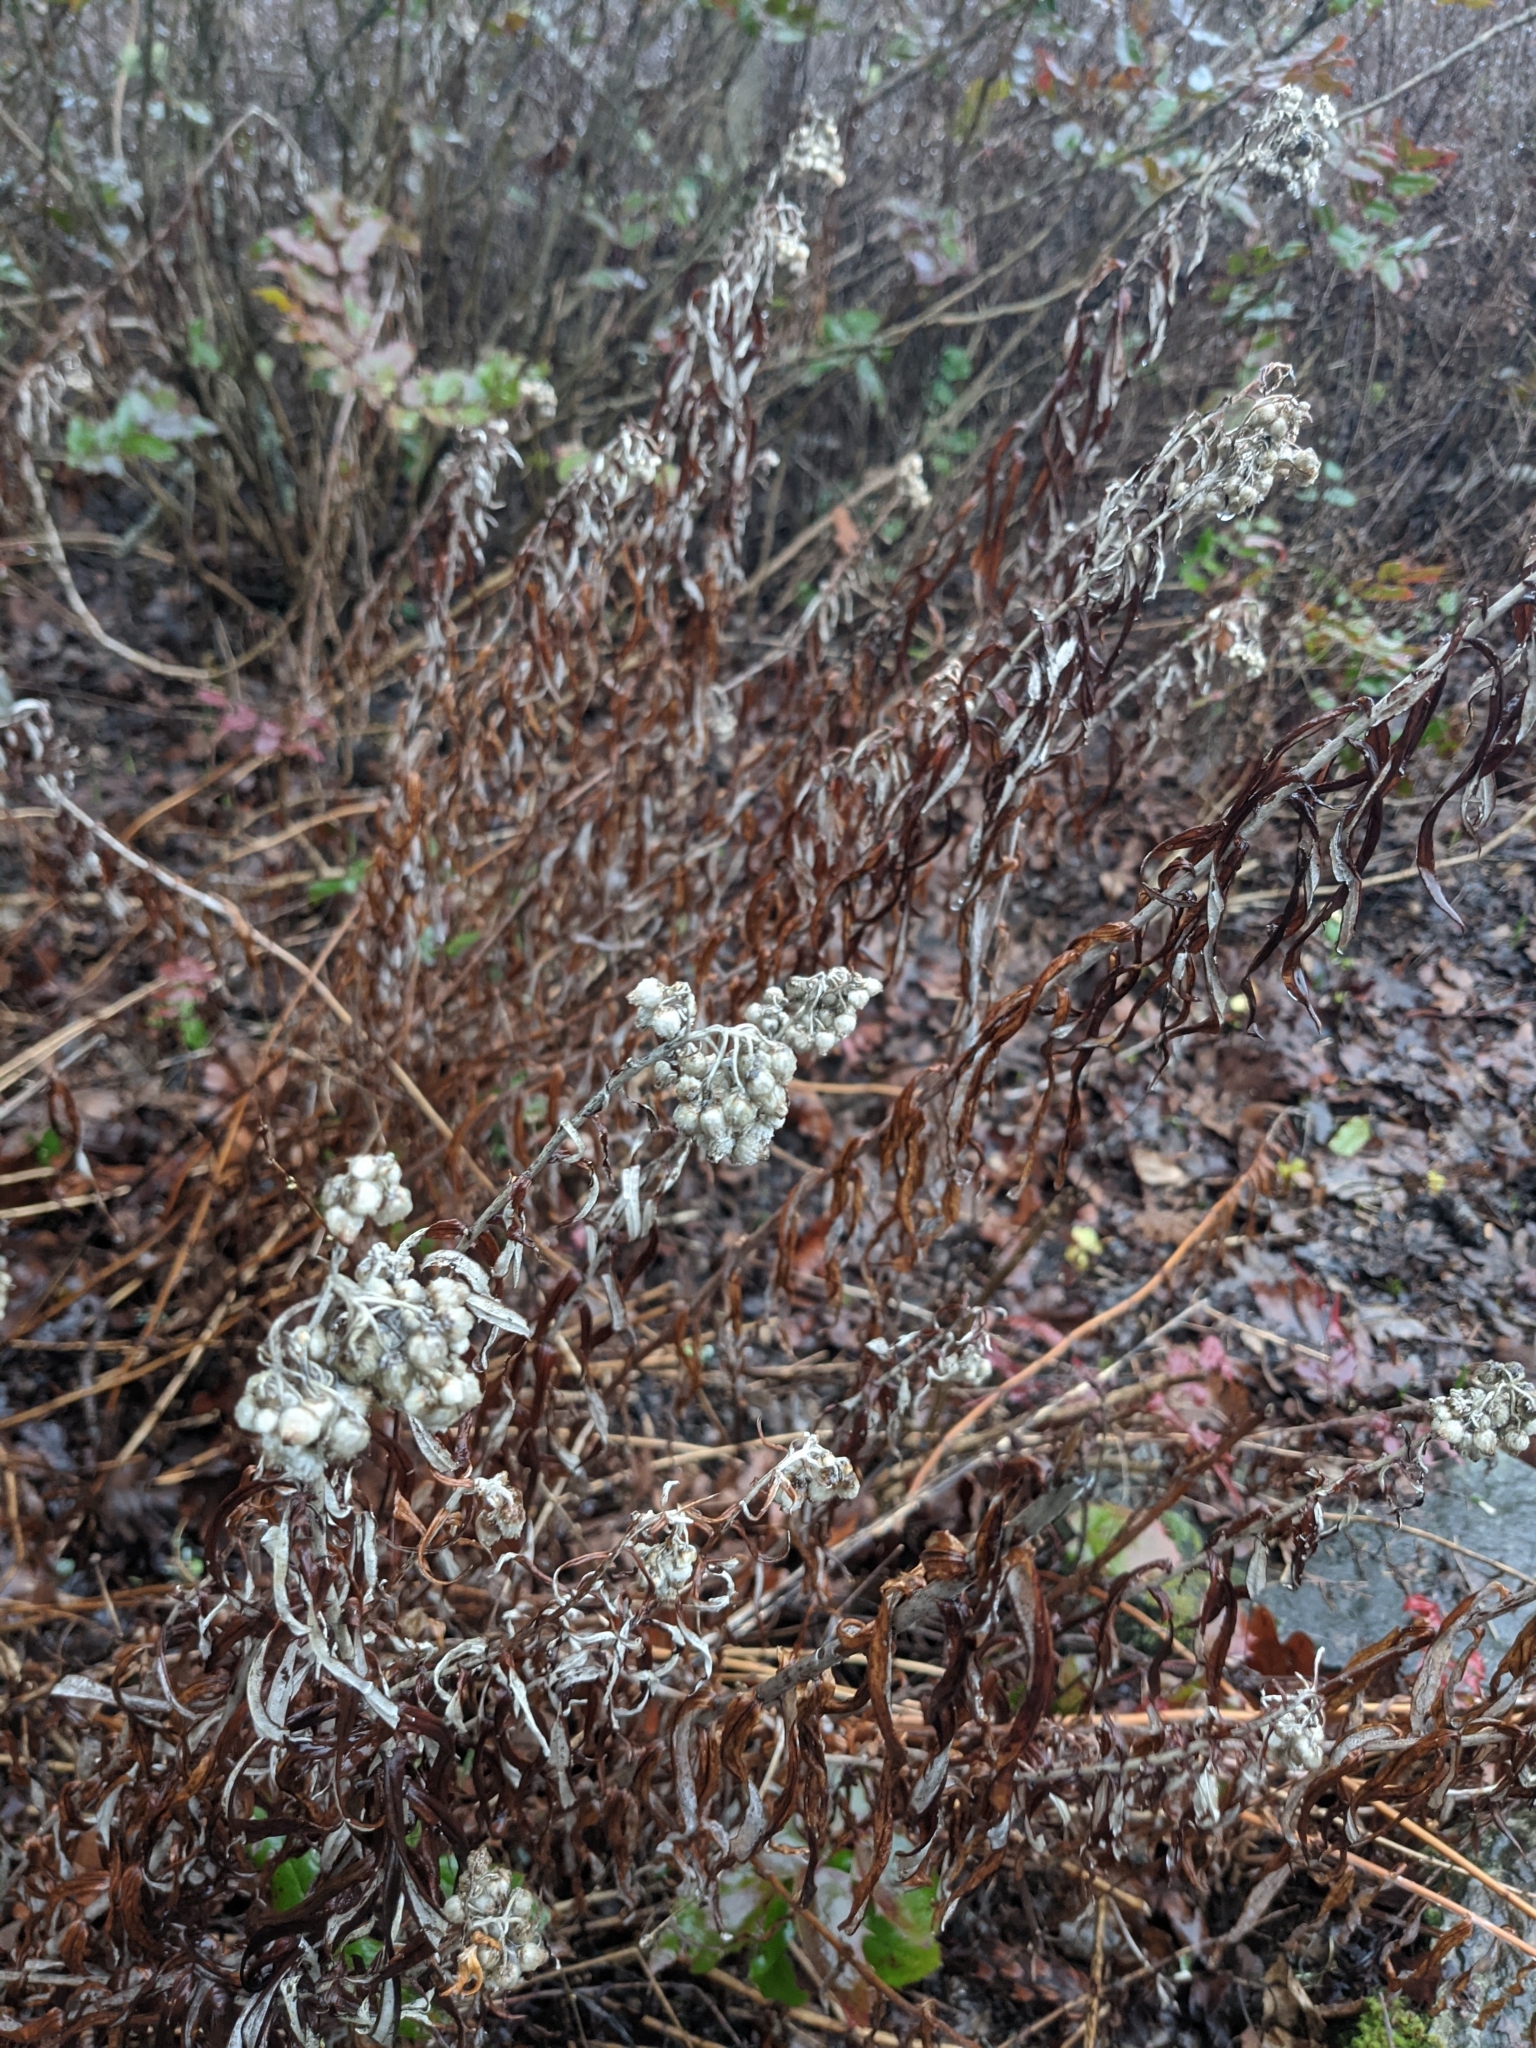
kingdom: Plantae
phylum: Tracheophyta
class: Magnoliopsida
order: Asterales
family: Asteraceae
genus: Anaphalis
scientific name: Anaphalis margaritacea
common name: Pearly everlasting
